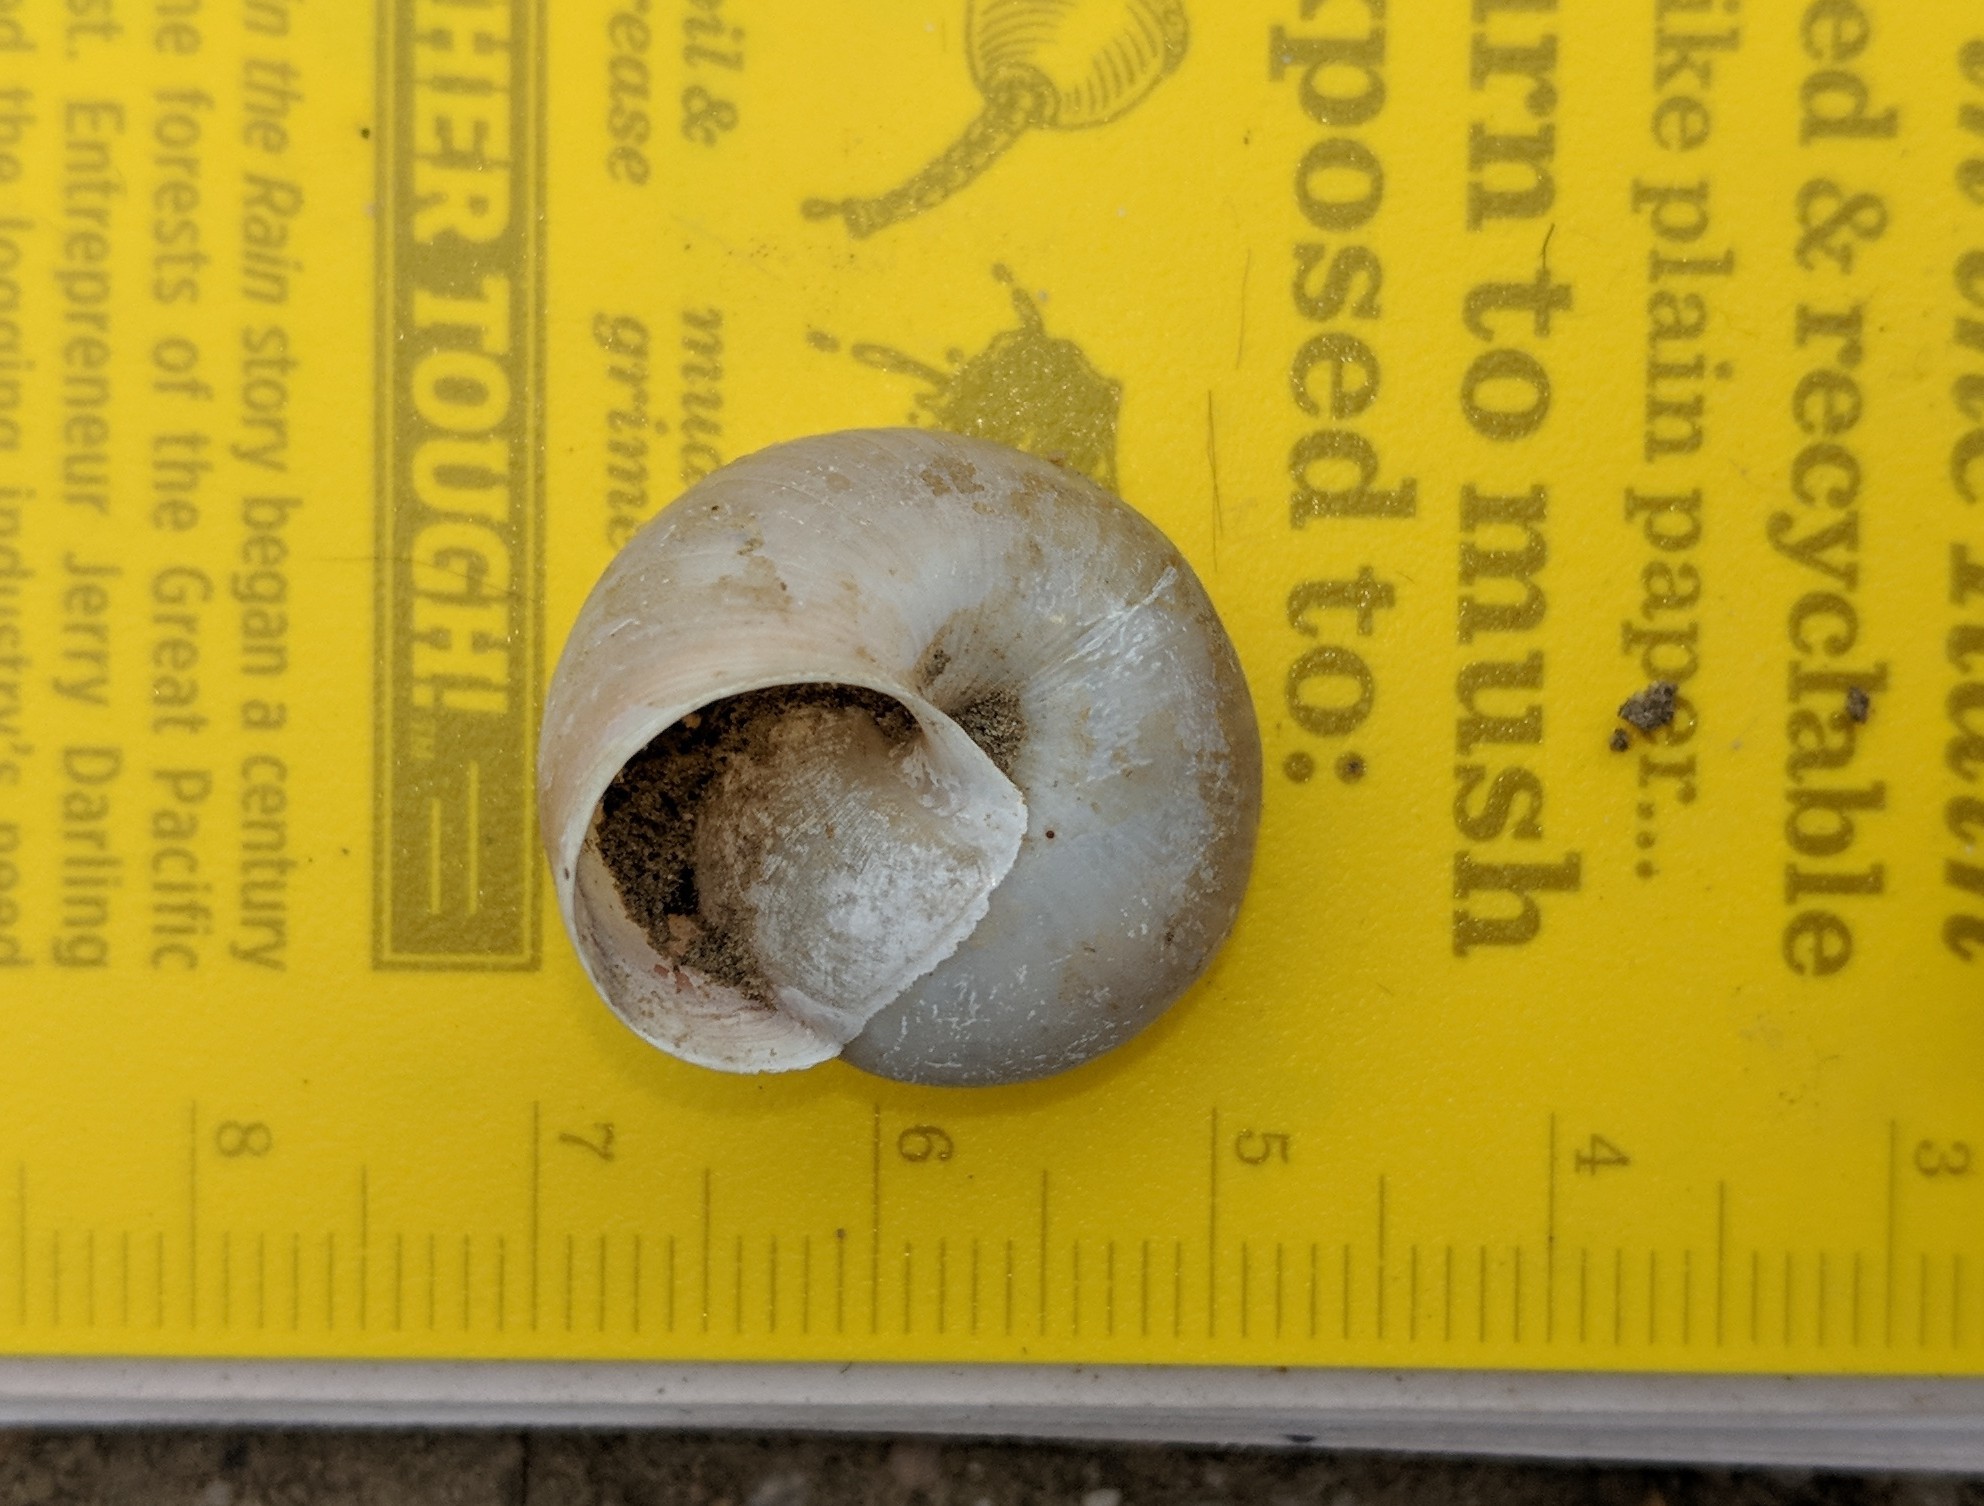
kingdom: Animalia
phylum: Mollusca
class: Gastropoda
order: Stylommatophora
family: Xanthonychidae
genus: Helminthoglypta
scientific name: Helminthoglypta traskii
